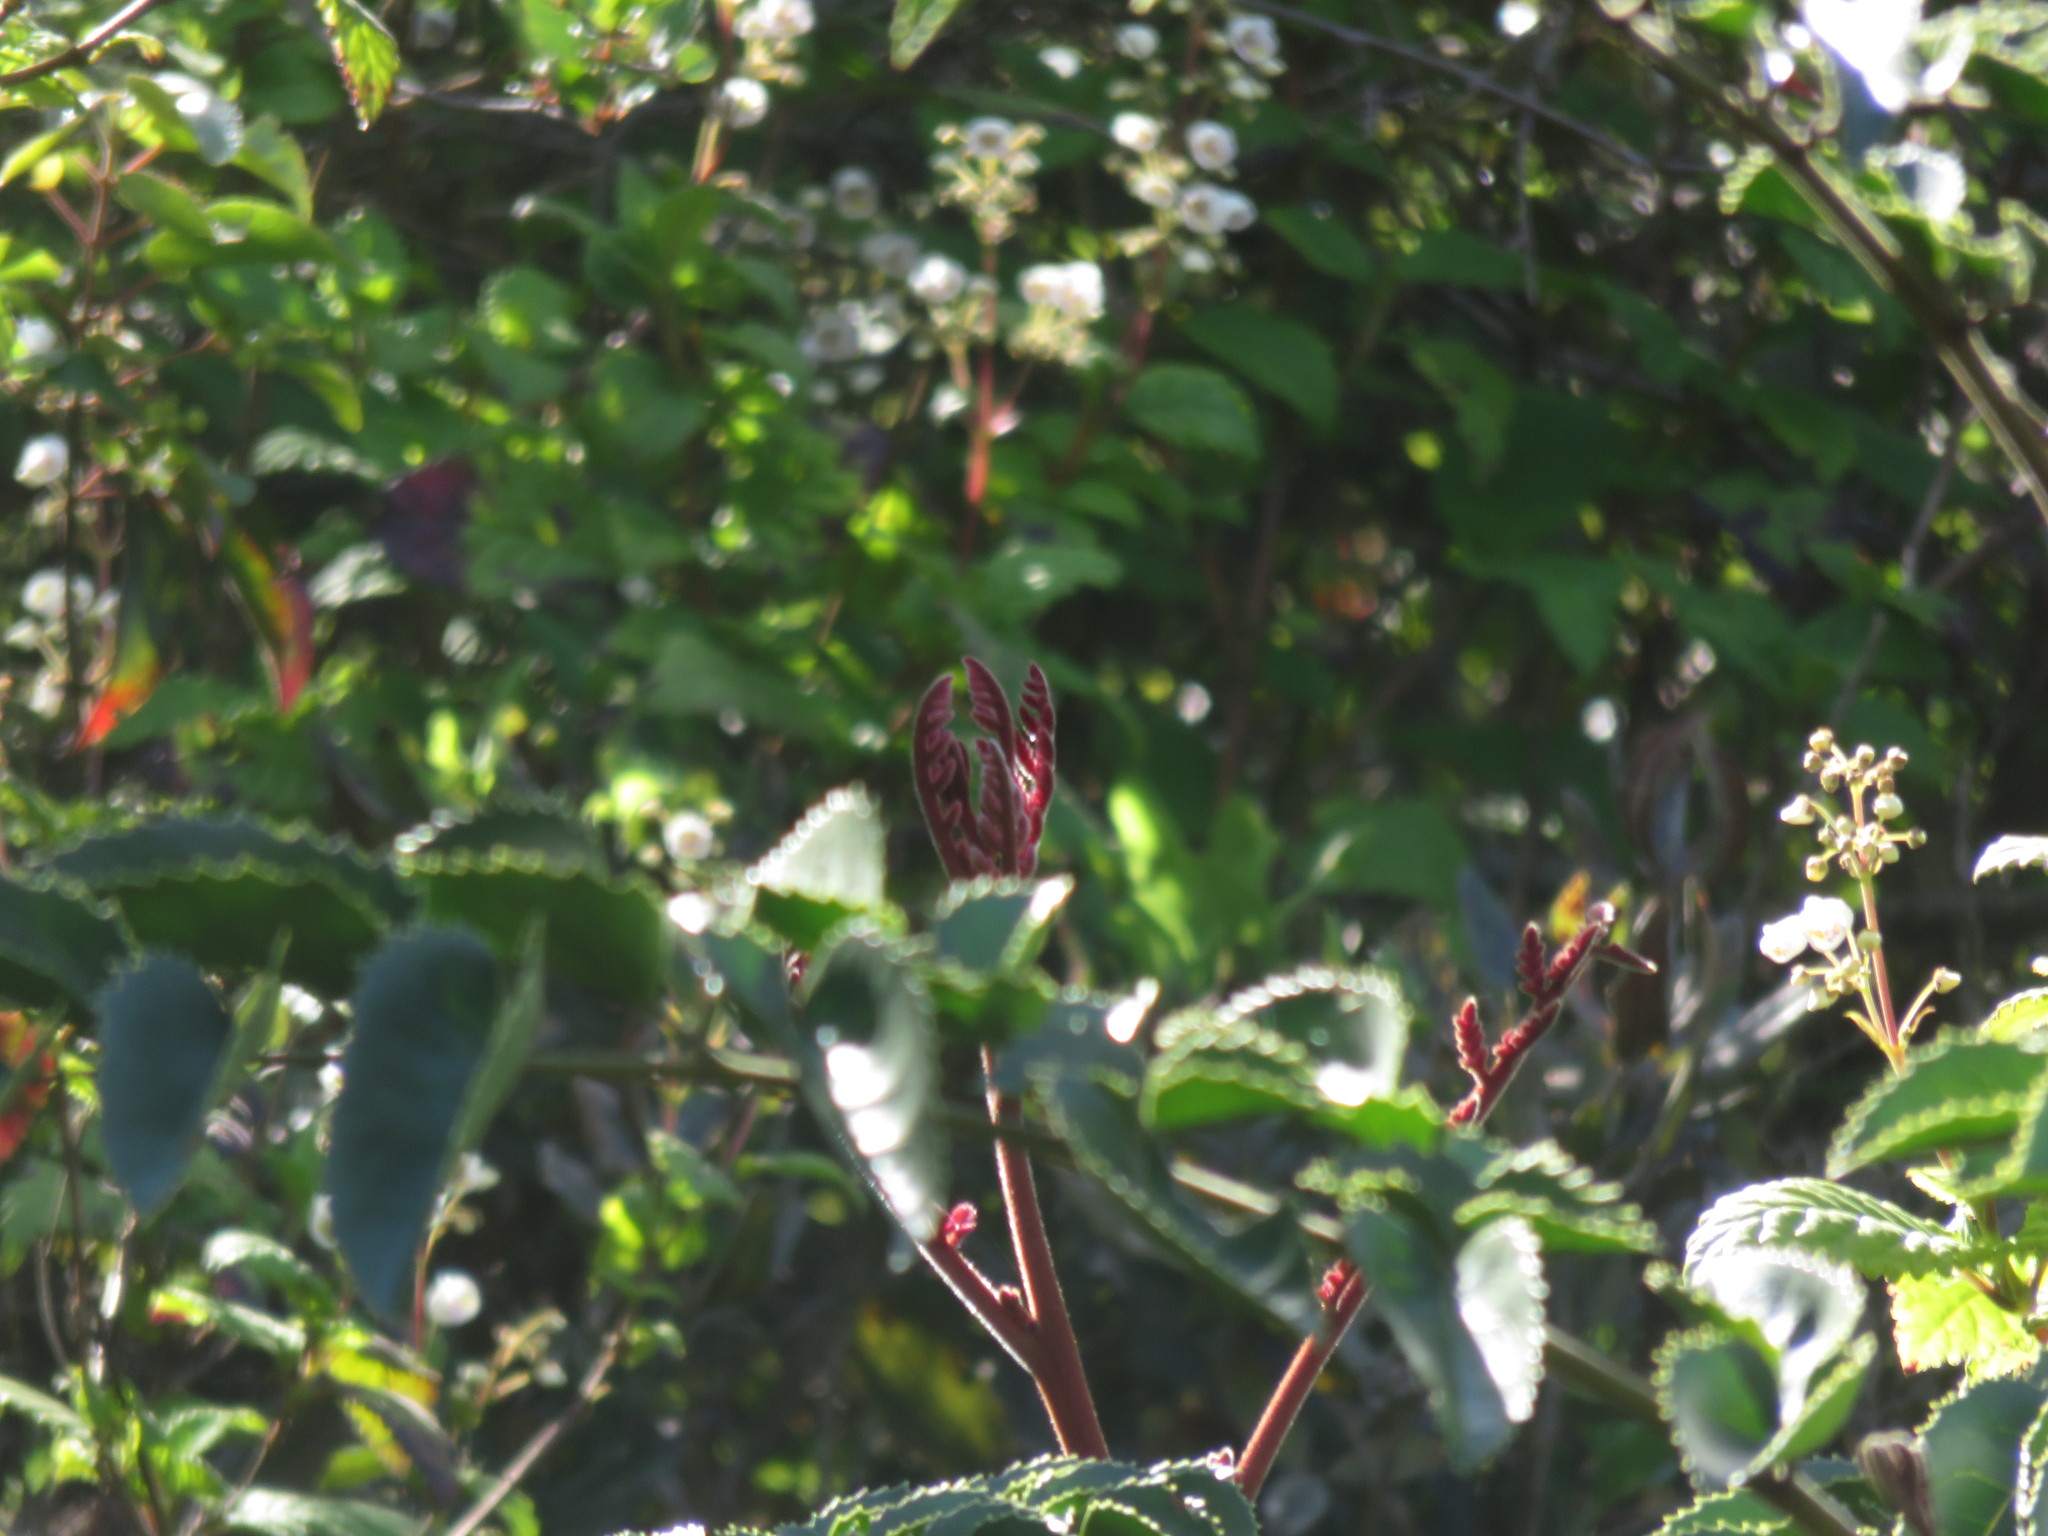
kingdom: Plantae
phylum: Tracheophyta
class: Magnoliopsida
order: Proteales
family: Proteaceae
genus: Gevuina
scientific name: Gevuina avellana
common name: Chilean hazel
